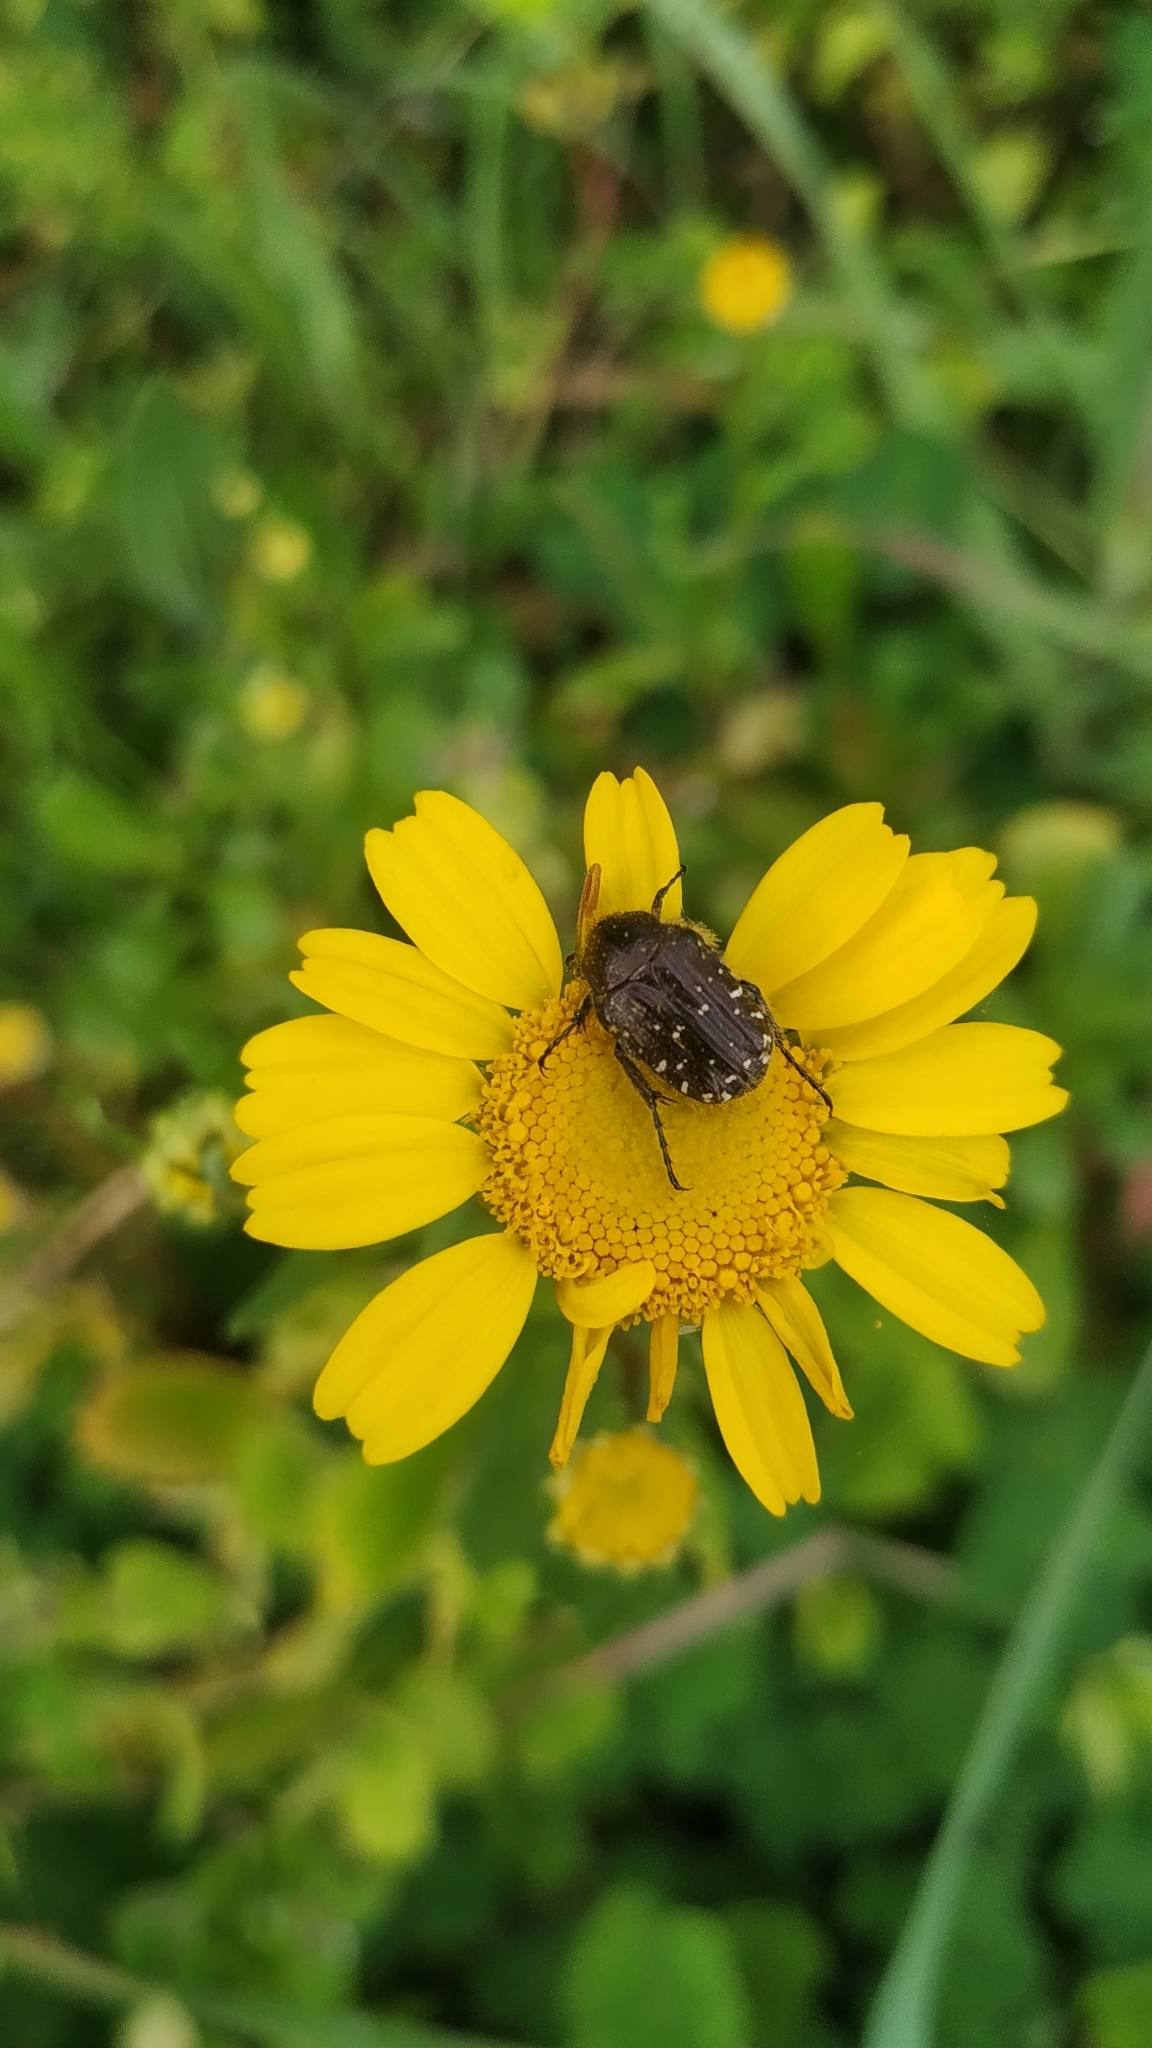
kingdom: Animalia
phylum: Arthropoda
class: Insecta
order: Coleoptera
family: Scarabaeidae
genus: Oxythyrea
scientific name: Oxythyrea funesta
